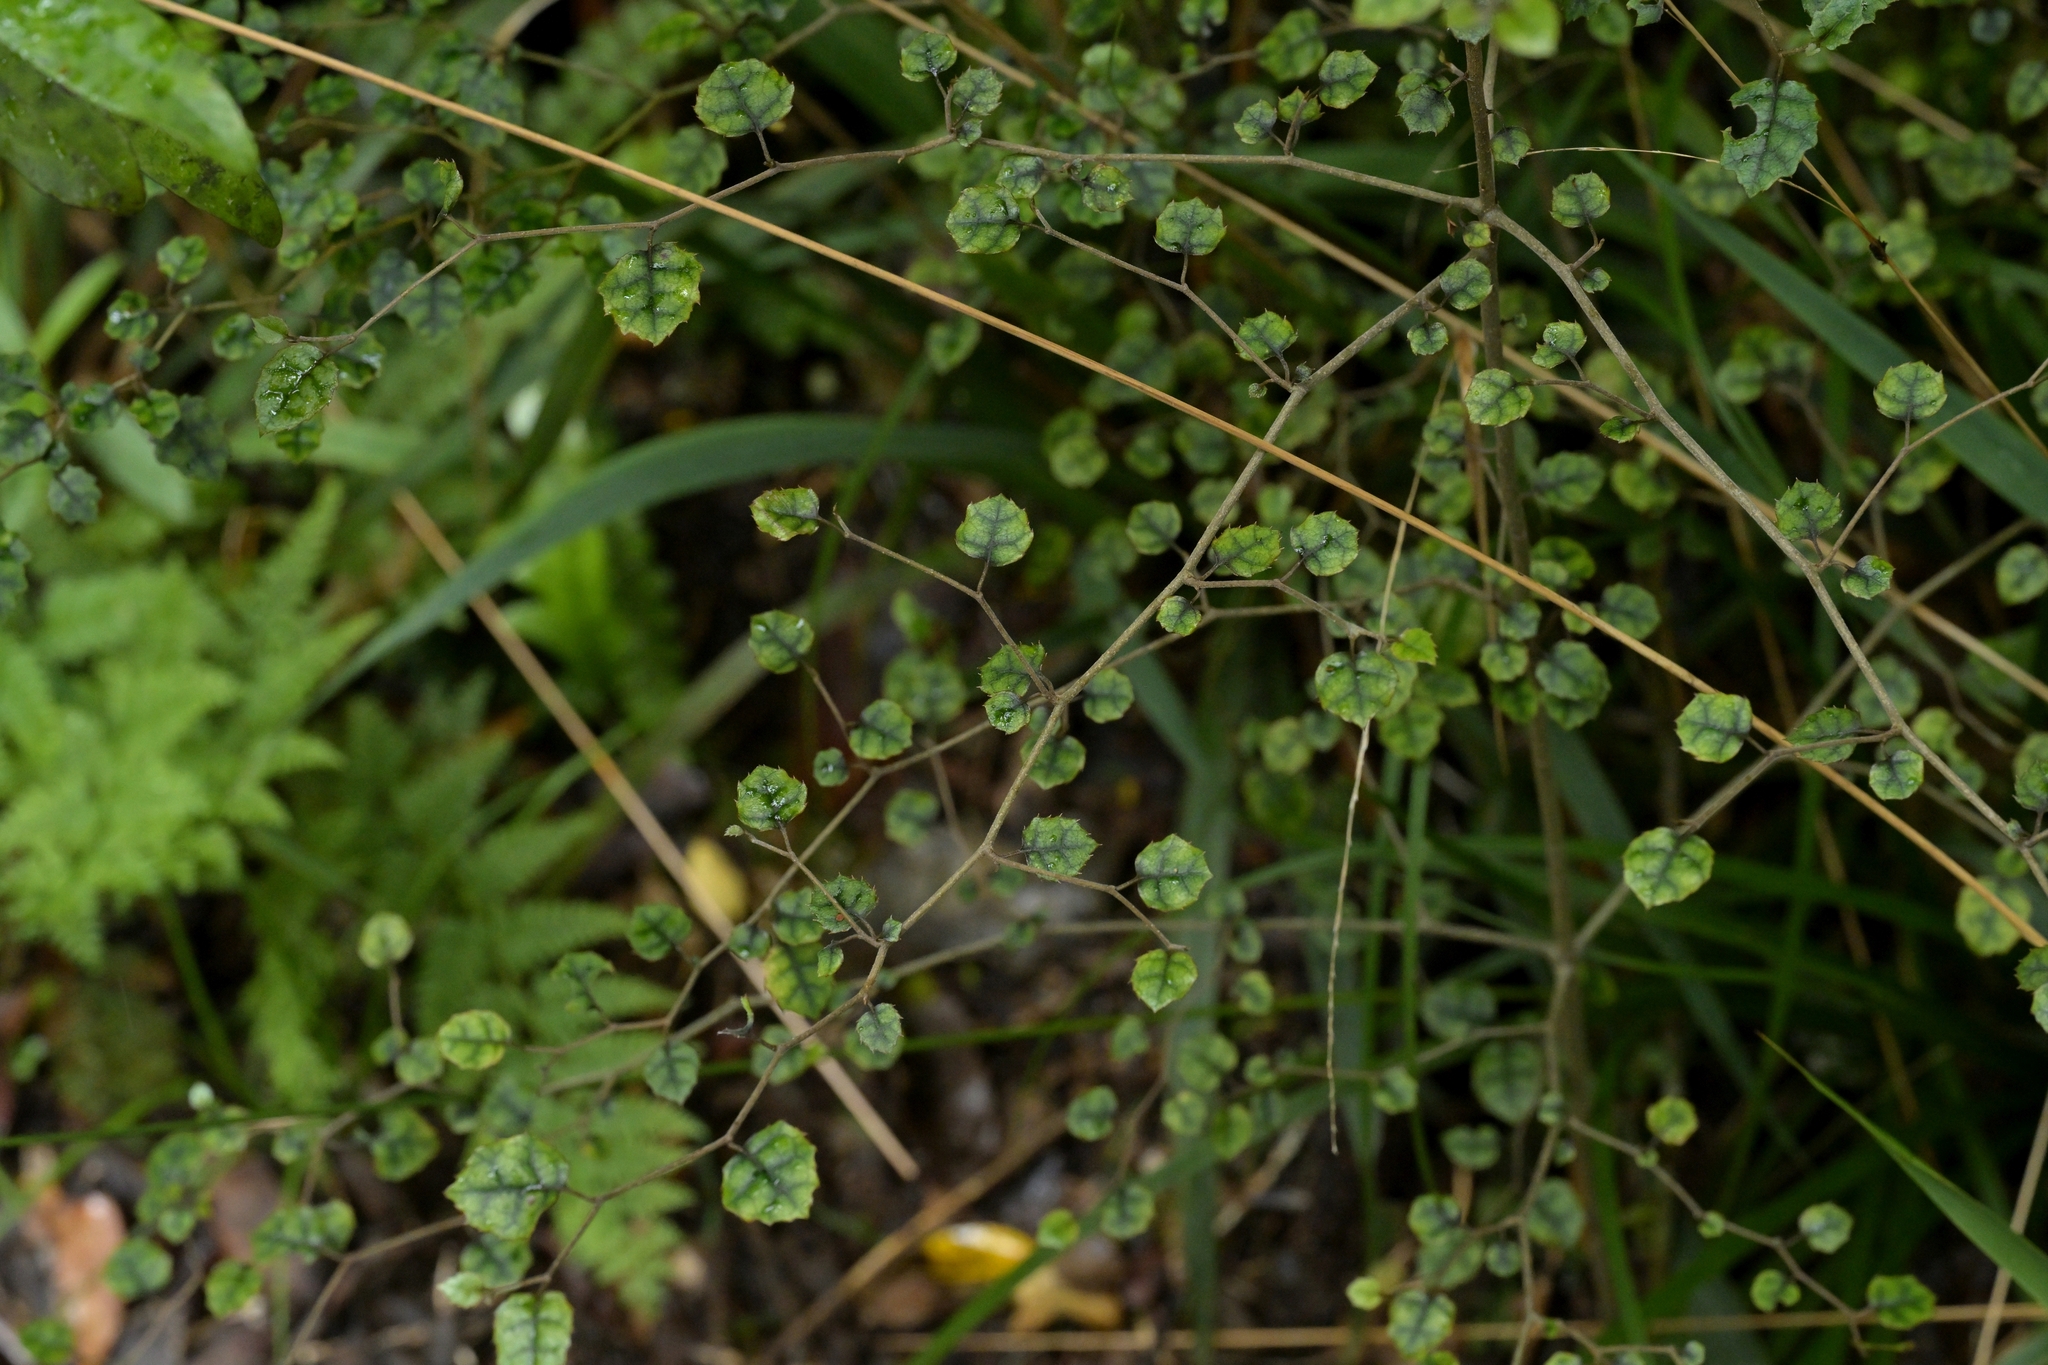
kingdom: Plantae
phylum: Tracheophyta
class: Magnoliopsida
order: Asterales
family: Rousseaceae
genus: Carpodetus
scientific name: Carpodetus serratus
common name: White mapau
